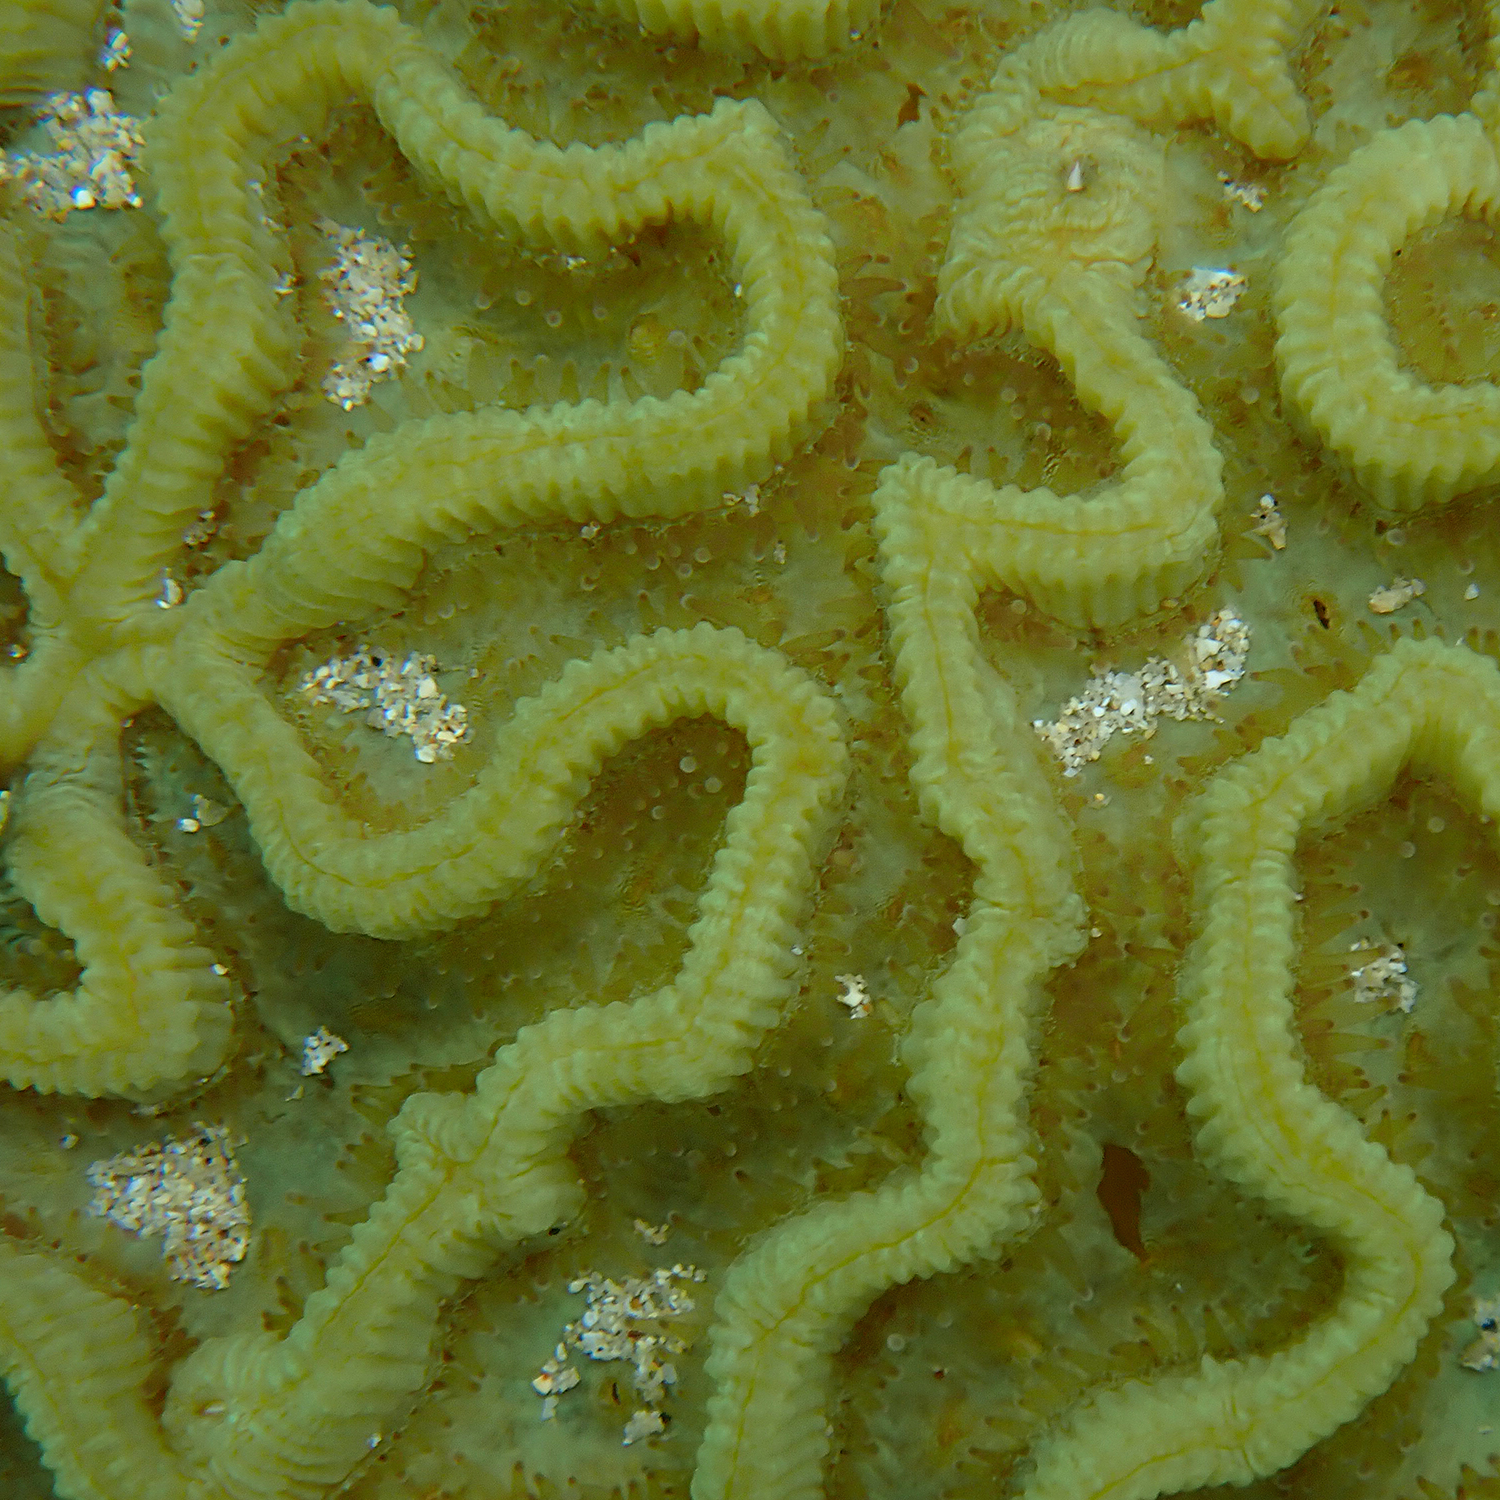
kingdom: Animalia
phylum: Cnidaria
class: Anthozoa
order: Scleractinia
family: Merulinidae
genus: Paragoniastrea
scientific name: Paragoniastrea australensis
